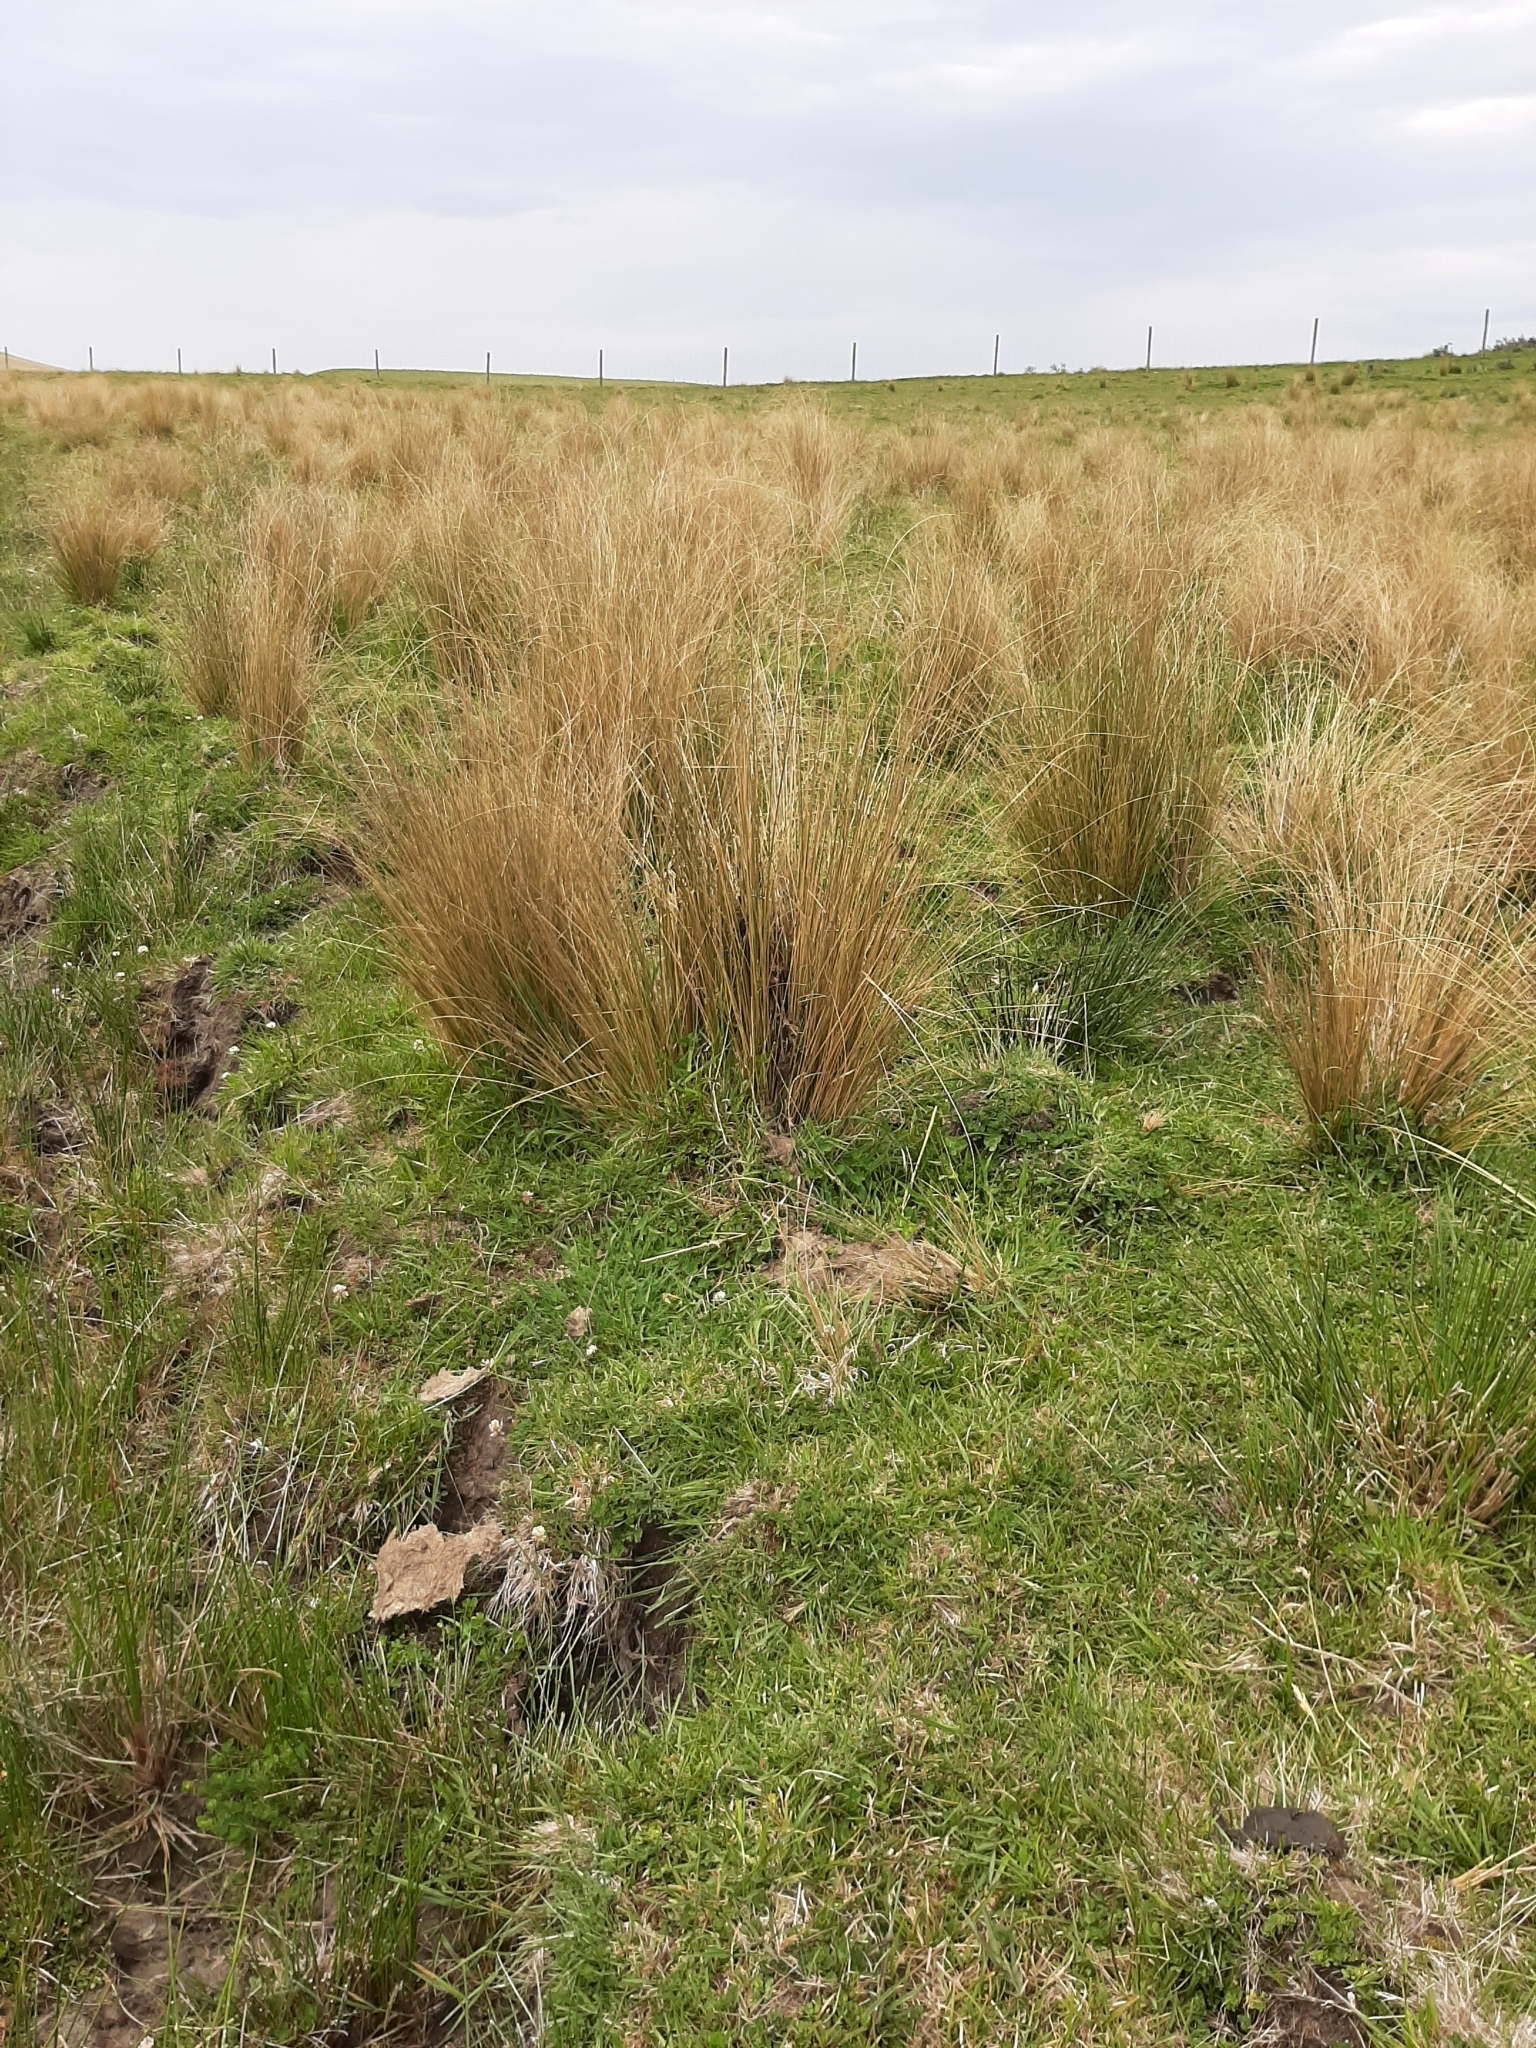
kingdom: Plantae
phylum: Tracheophyta
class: Liliopsida
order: Poales
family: Poaceae
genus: Chionochloa
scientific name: Chionochloa rubra
